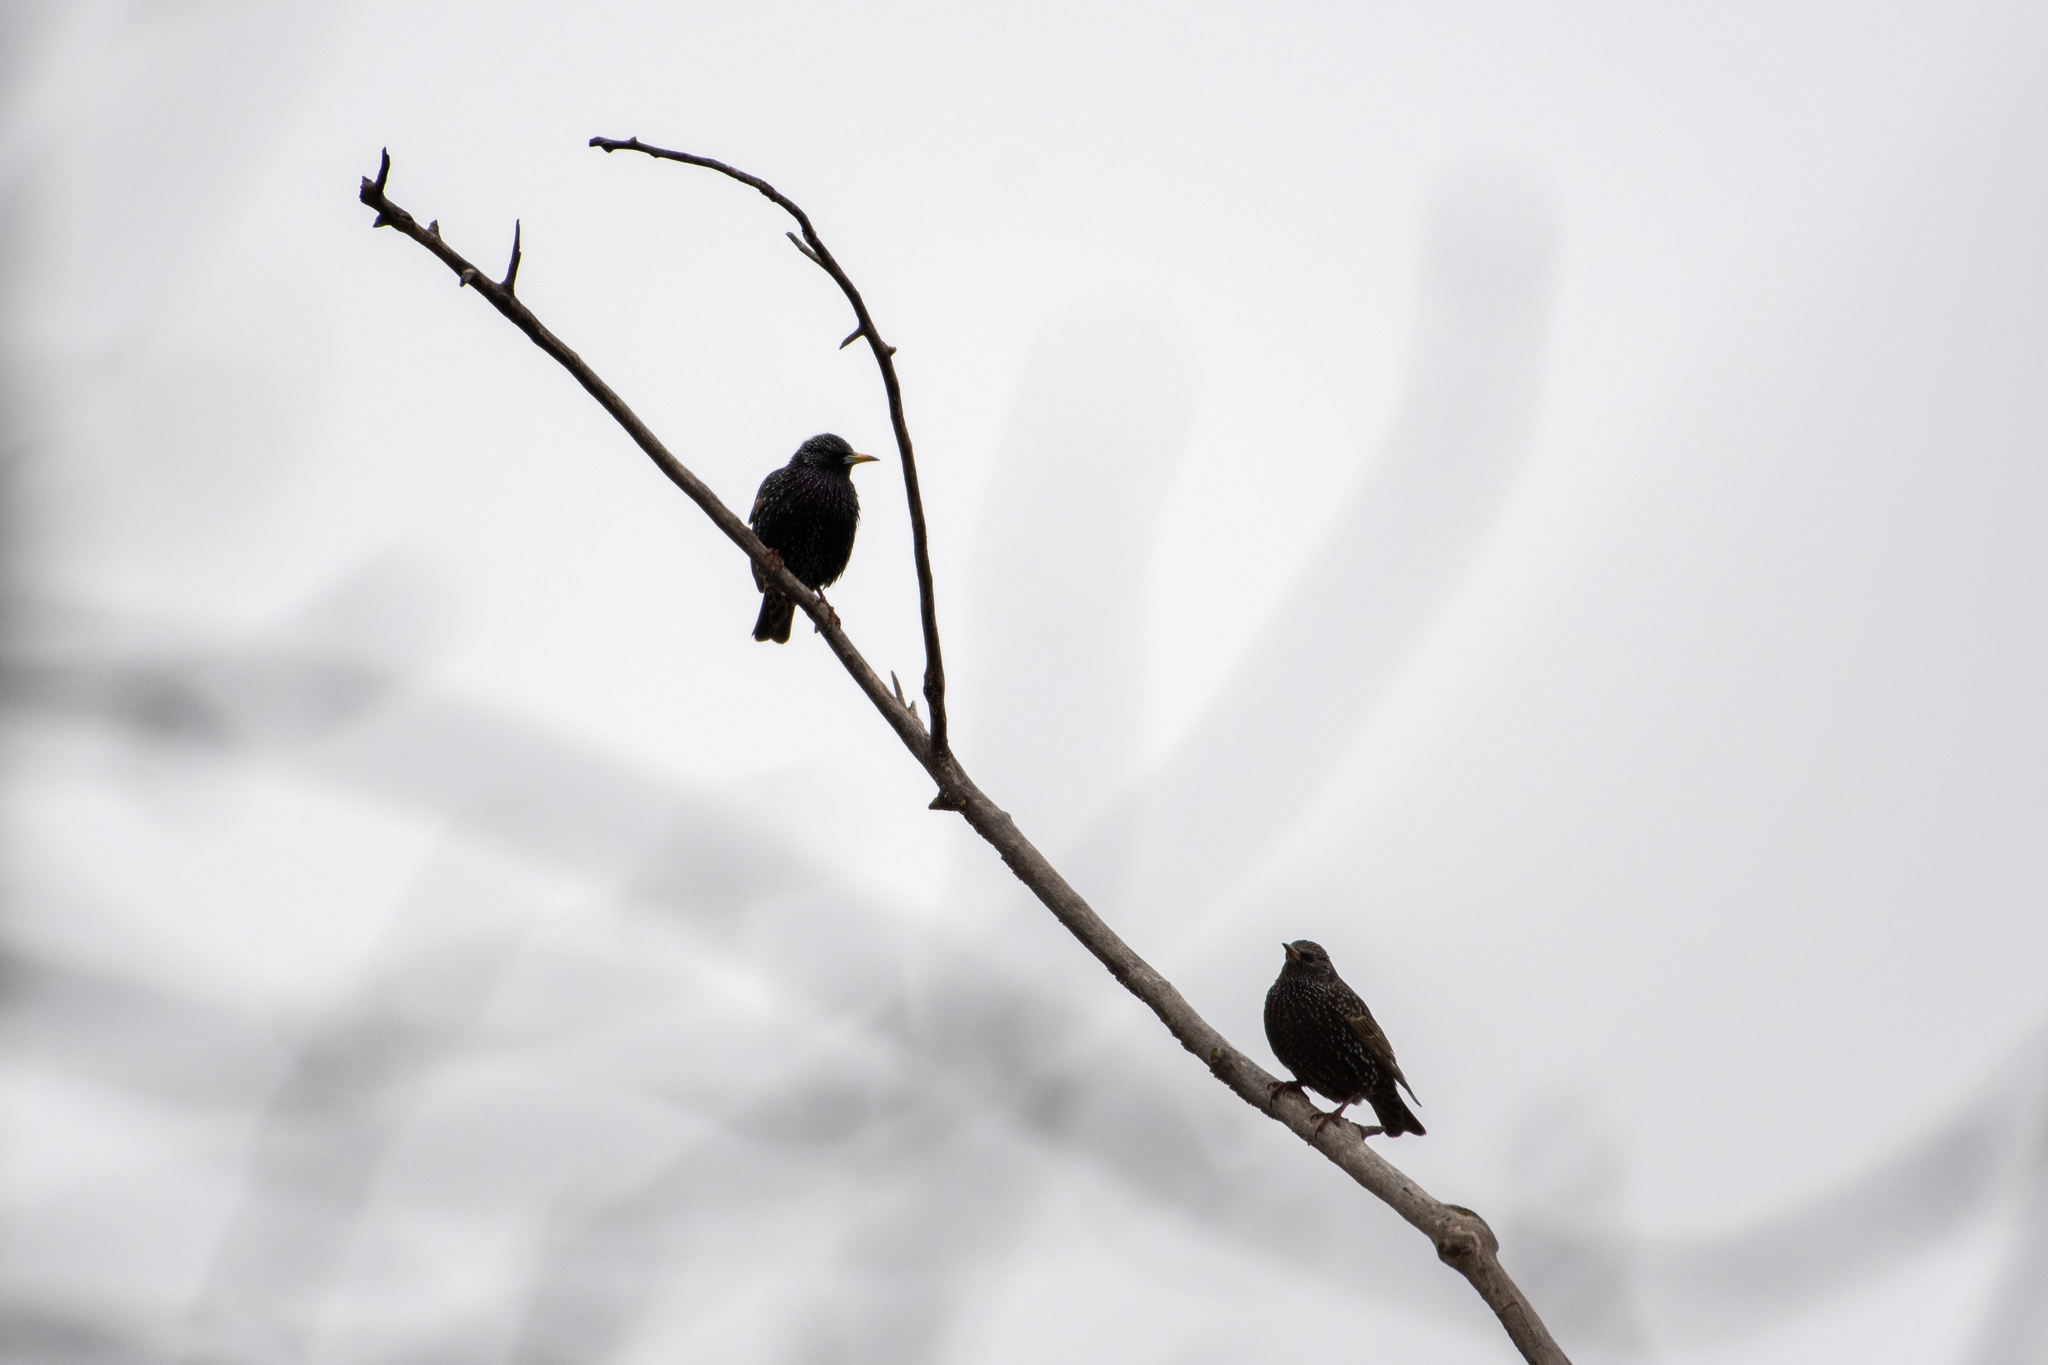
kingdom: Animalia
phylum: Chordata
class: Aves
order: Passeriformes
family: Sturnidae
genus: Sturnus
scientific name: Sturnus vulgaris
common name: Common starling
